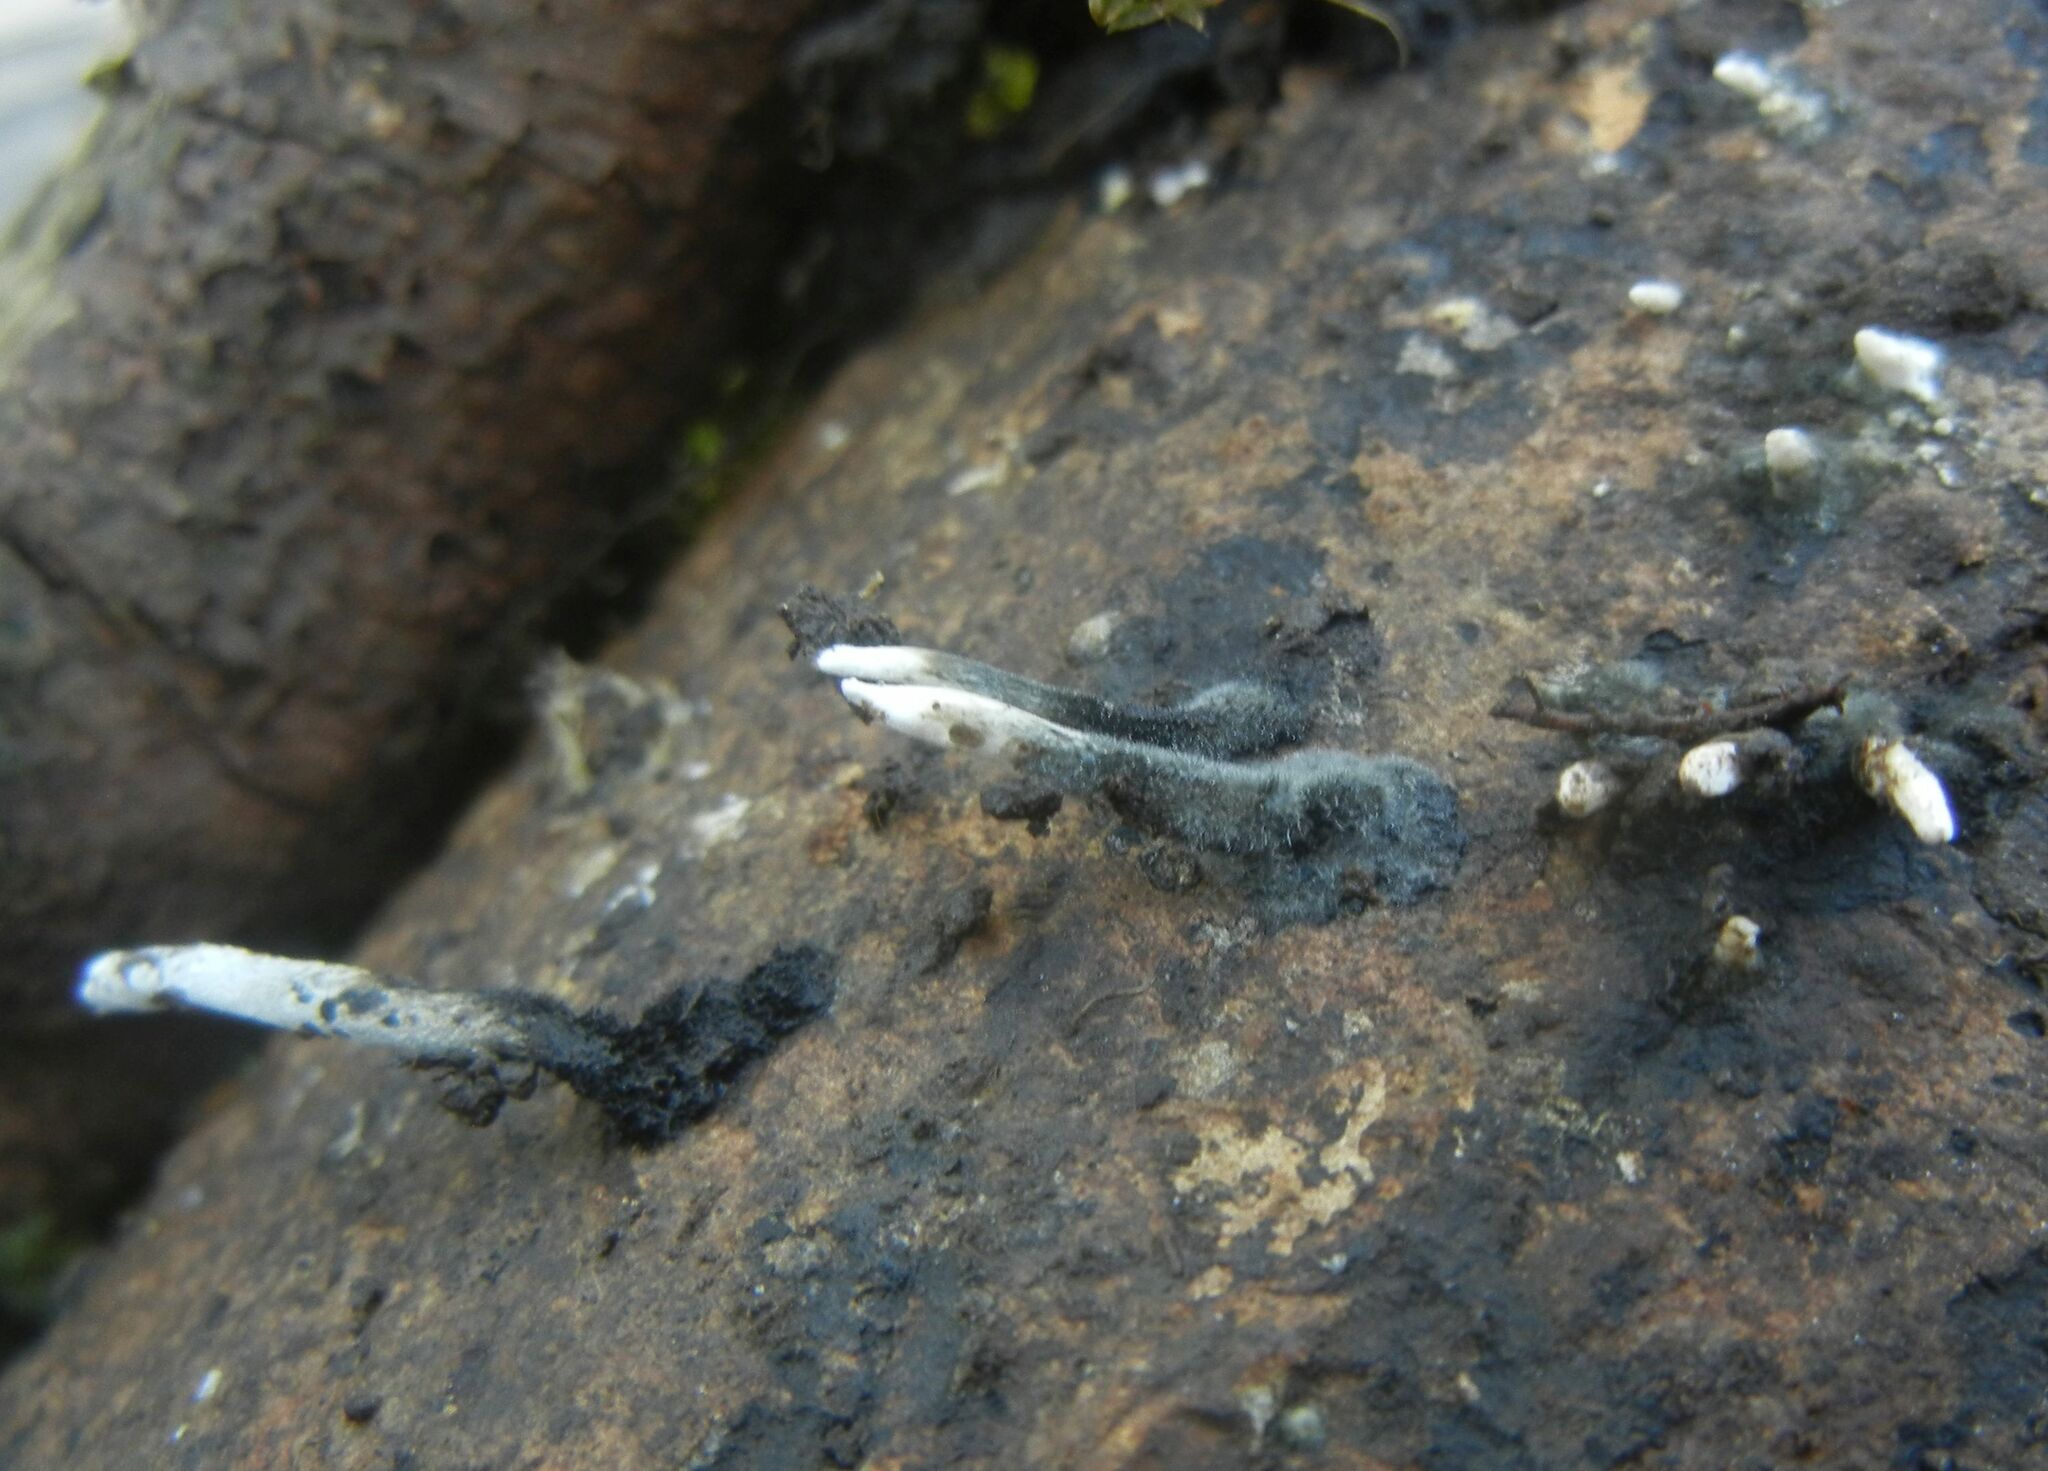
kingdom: Fungi
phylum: Ascomycota
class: Sordariomycetes
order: Xylariales
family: Xylariaceae
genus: Xylaria
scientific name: Xylaria hypoxylon
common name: Candle-snuff fungus
